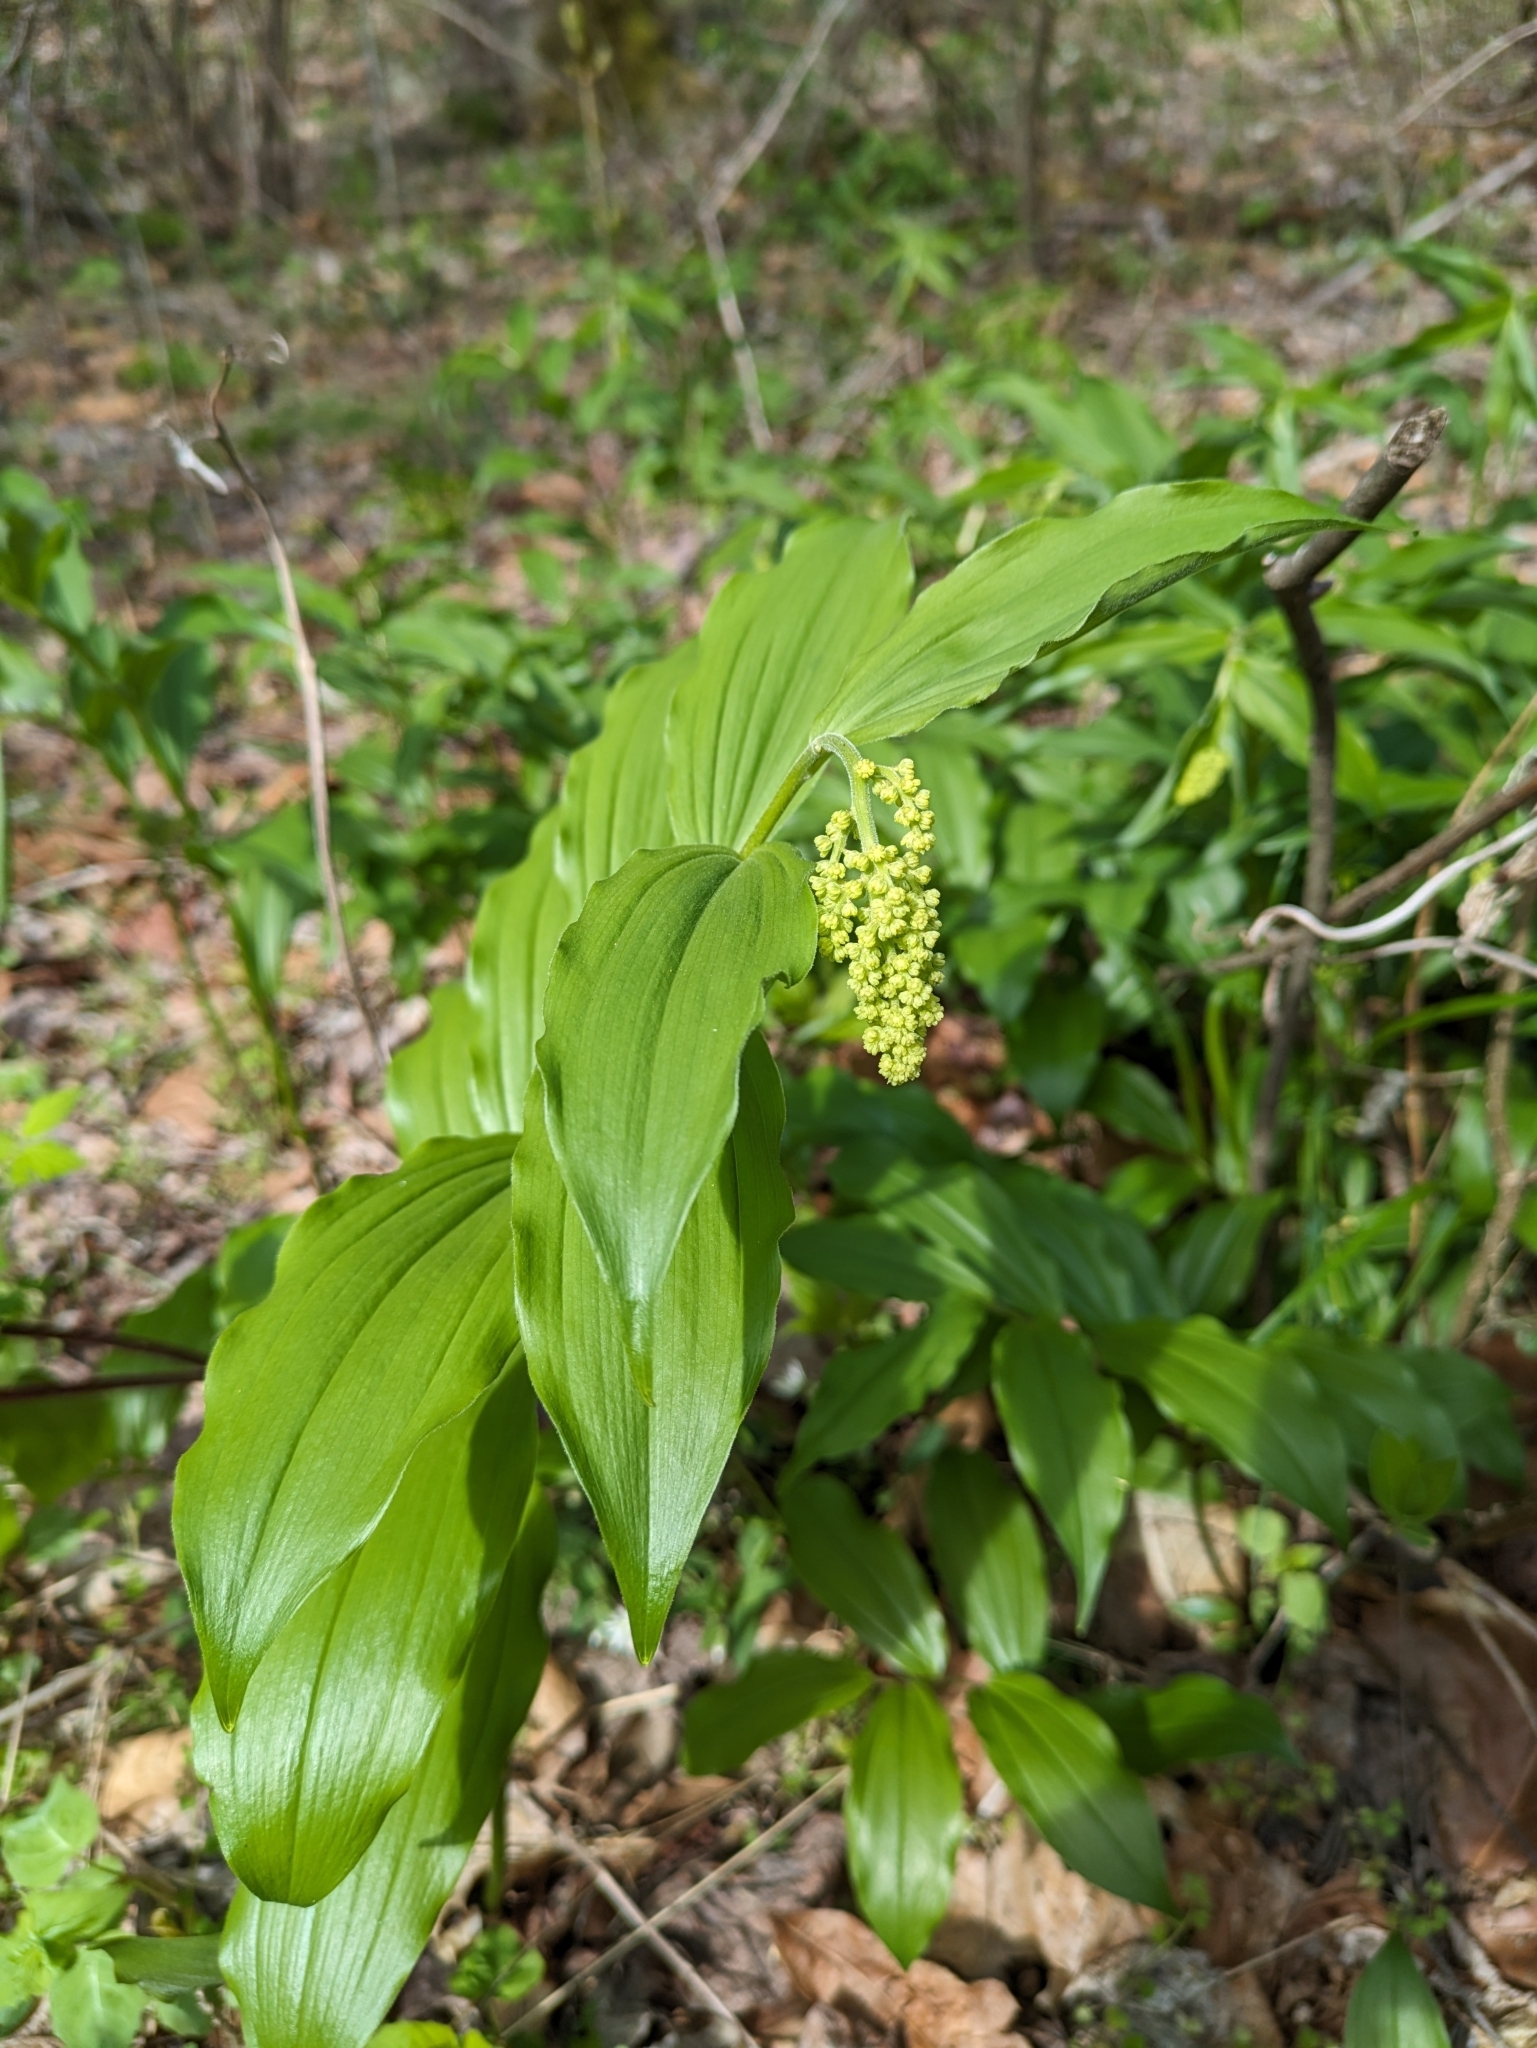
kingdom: Plantae
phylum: Tracheophyta
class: Liliopsida
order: Asparagales
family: Asparagaceae
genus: Maianthemum
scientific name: Maianthemum racemosum
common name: False spikenard
